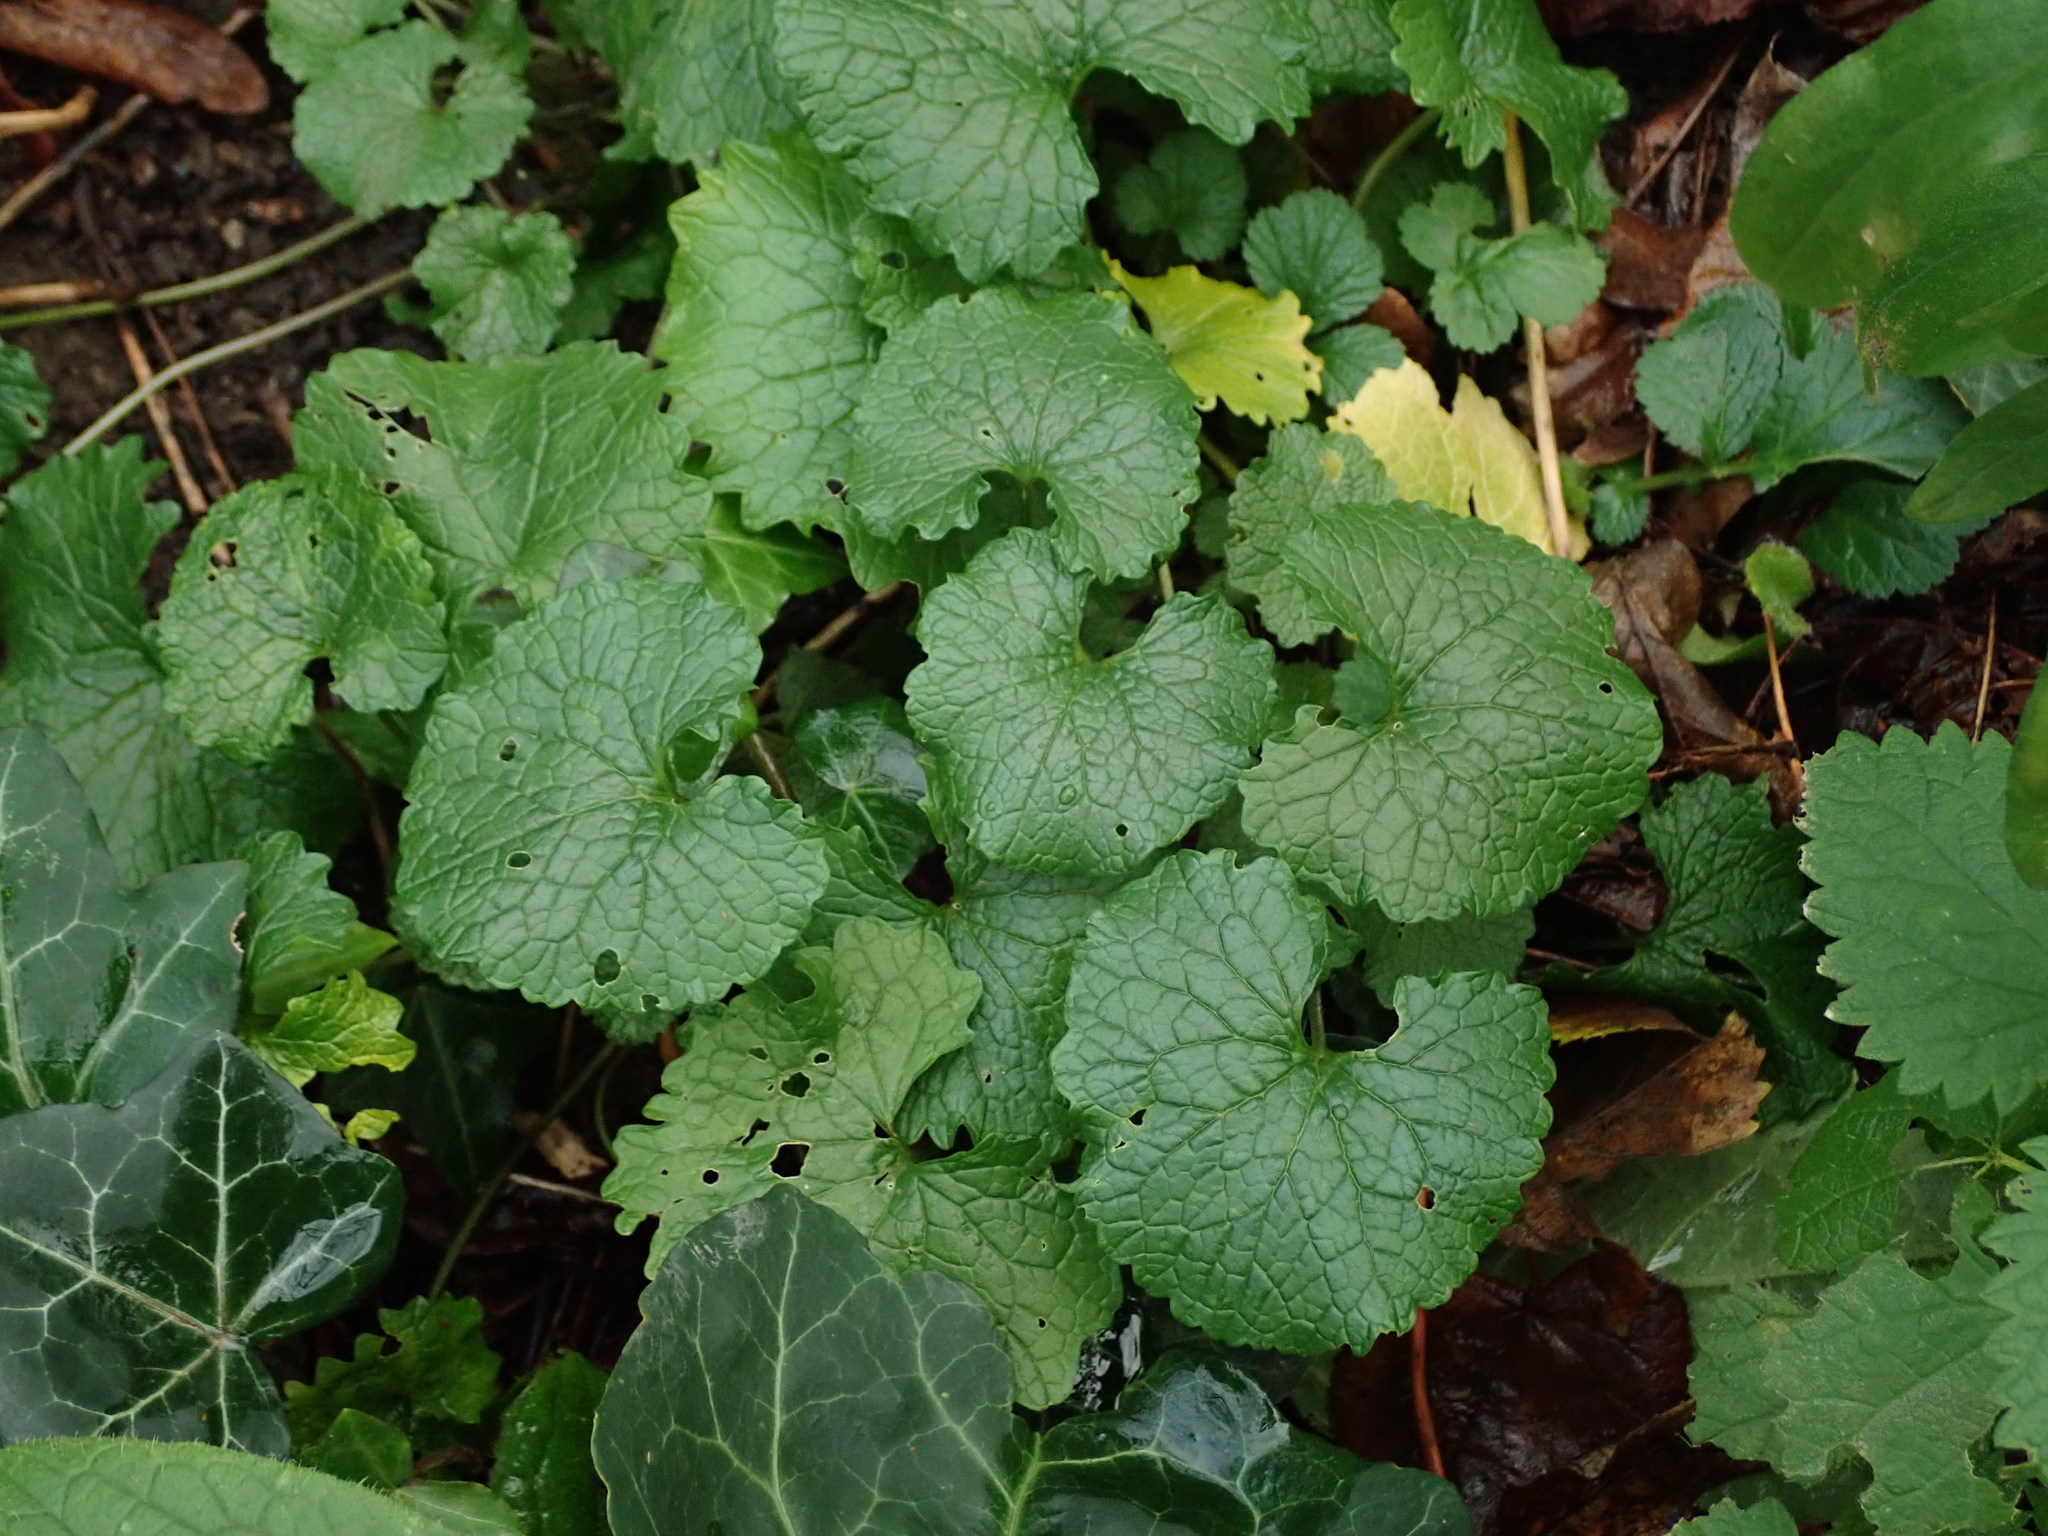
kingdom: Plantae
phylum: Tracheophyta
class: Magnoliopsida
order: Brassicales
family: Brassicaceae
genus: Alliaria
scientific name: Alliaria petiolata
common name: Garlic mustard
